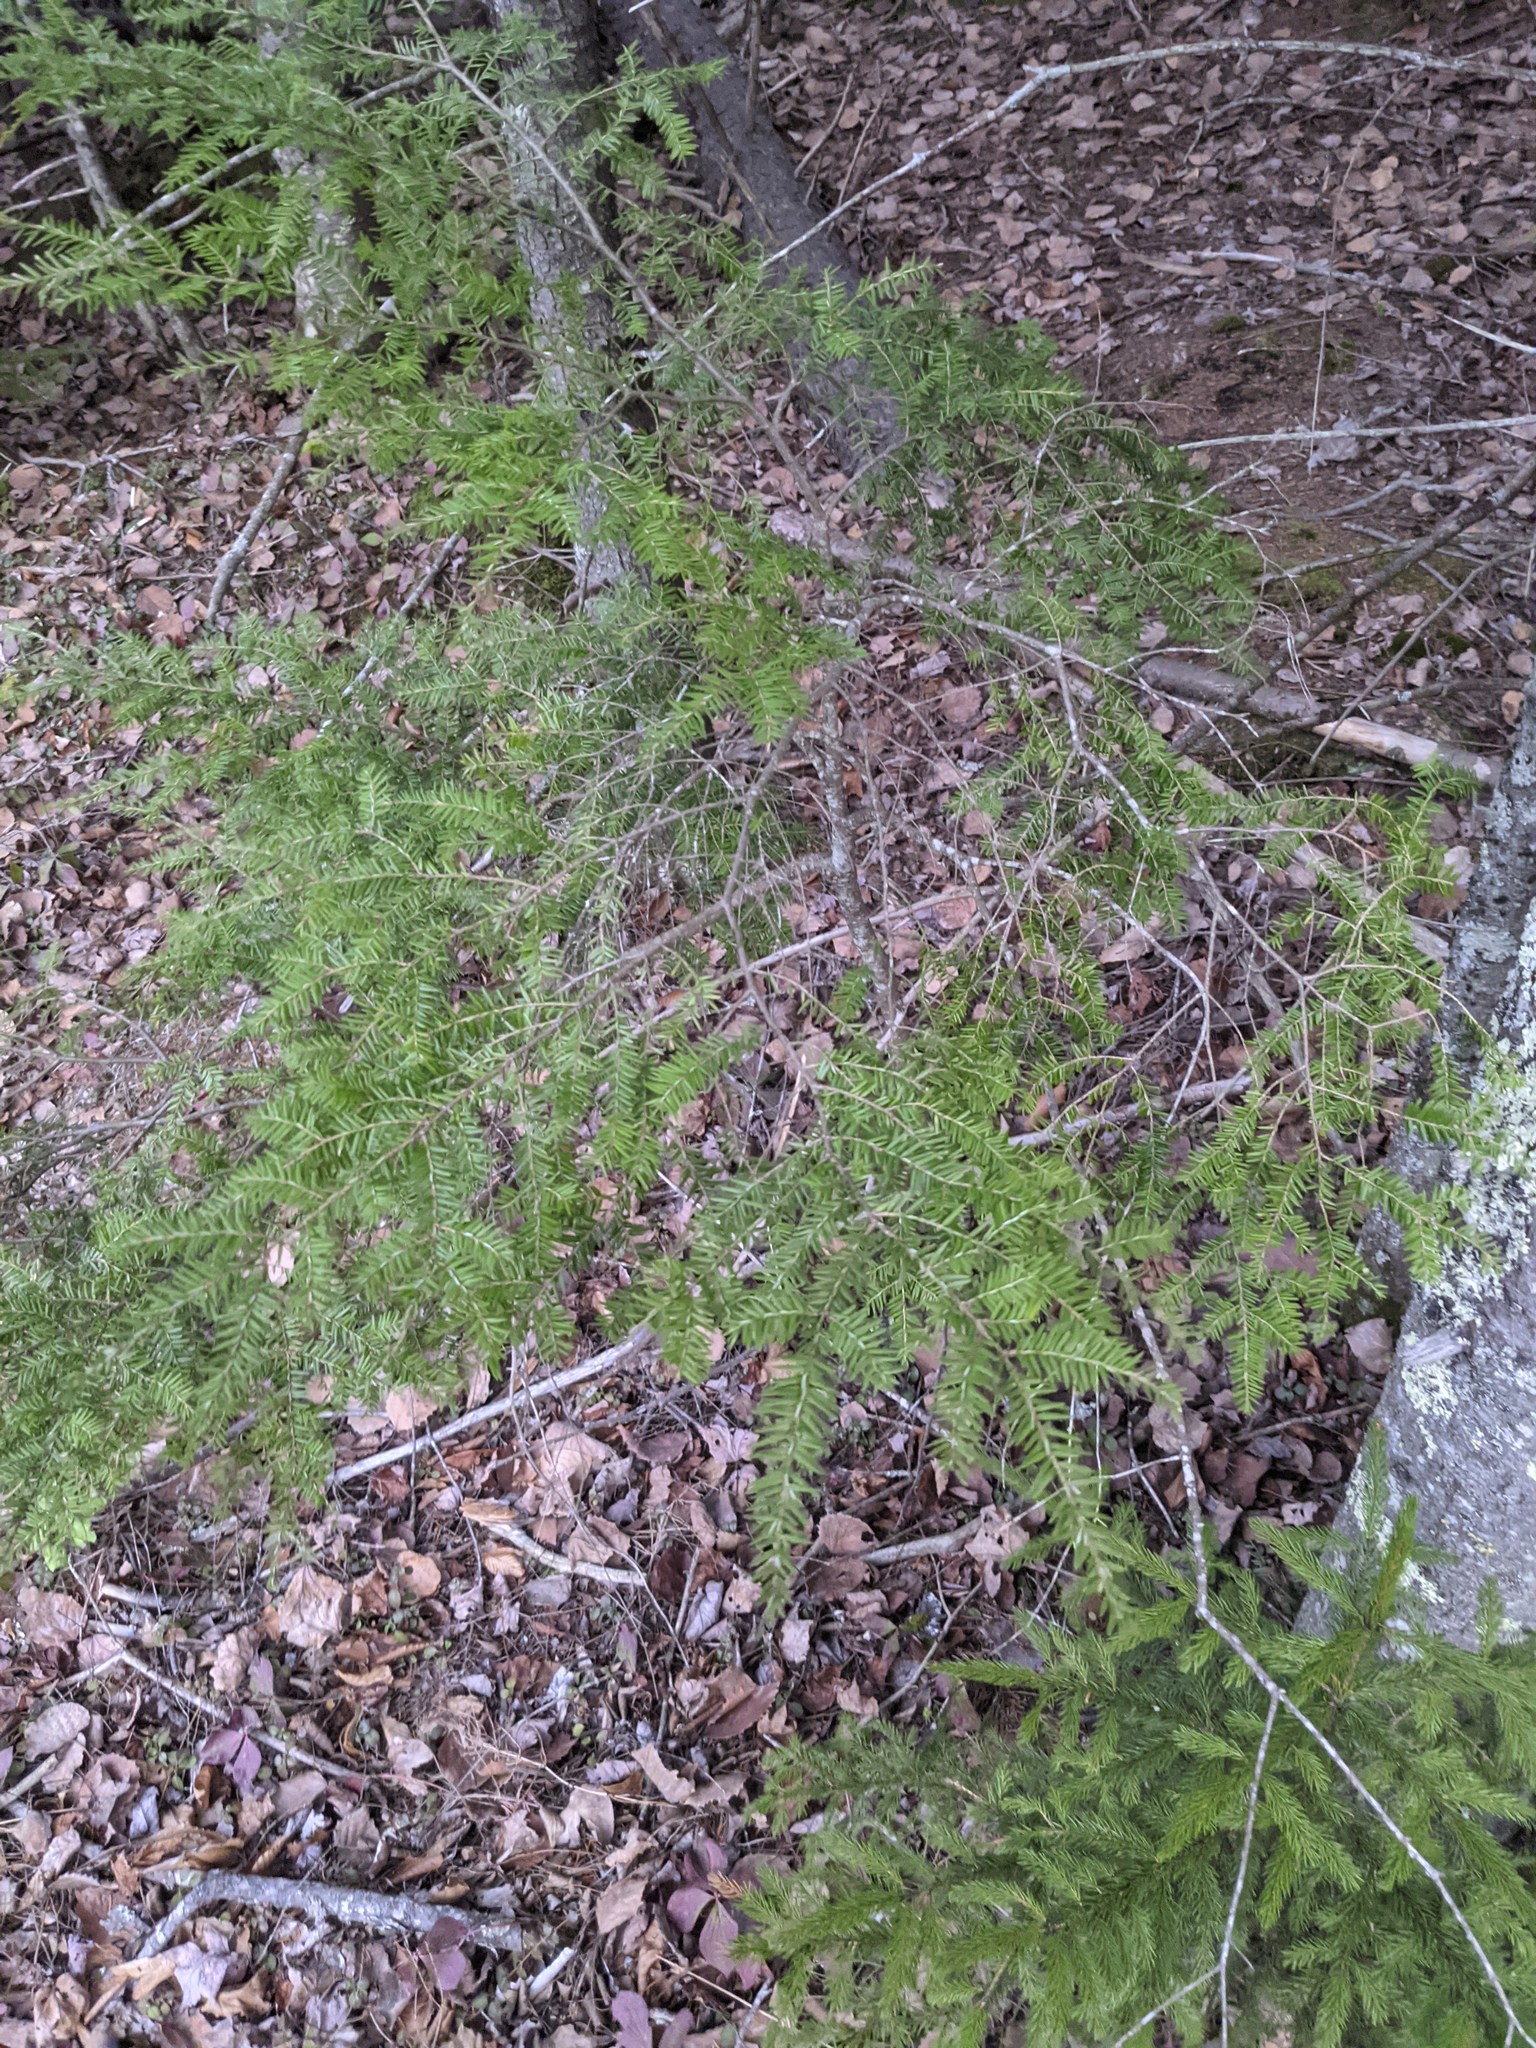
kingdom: Plantae
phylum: Tracheophyta
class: Pinopsida
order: Pinales
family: Pinaceae
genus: Tsuga
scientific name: Tsuga canadensis
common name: Eastern hemlock
